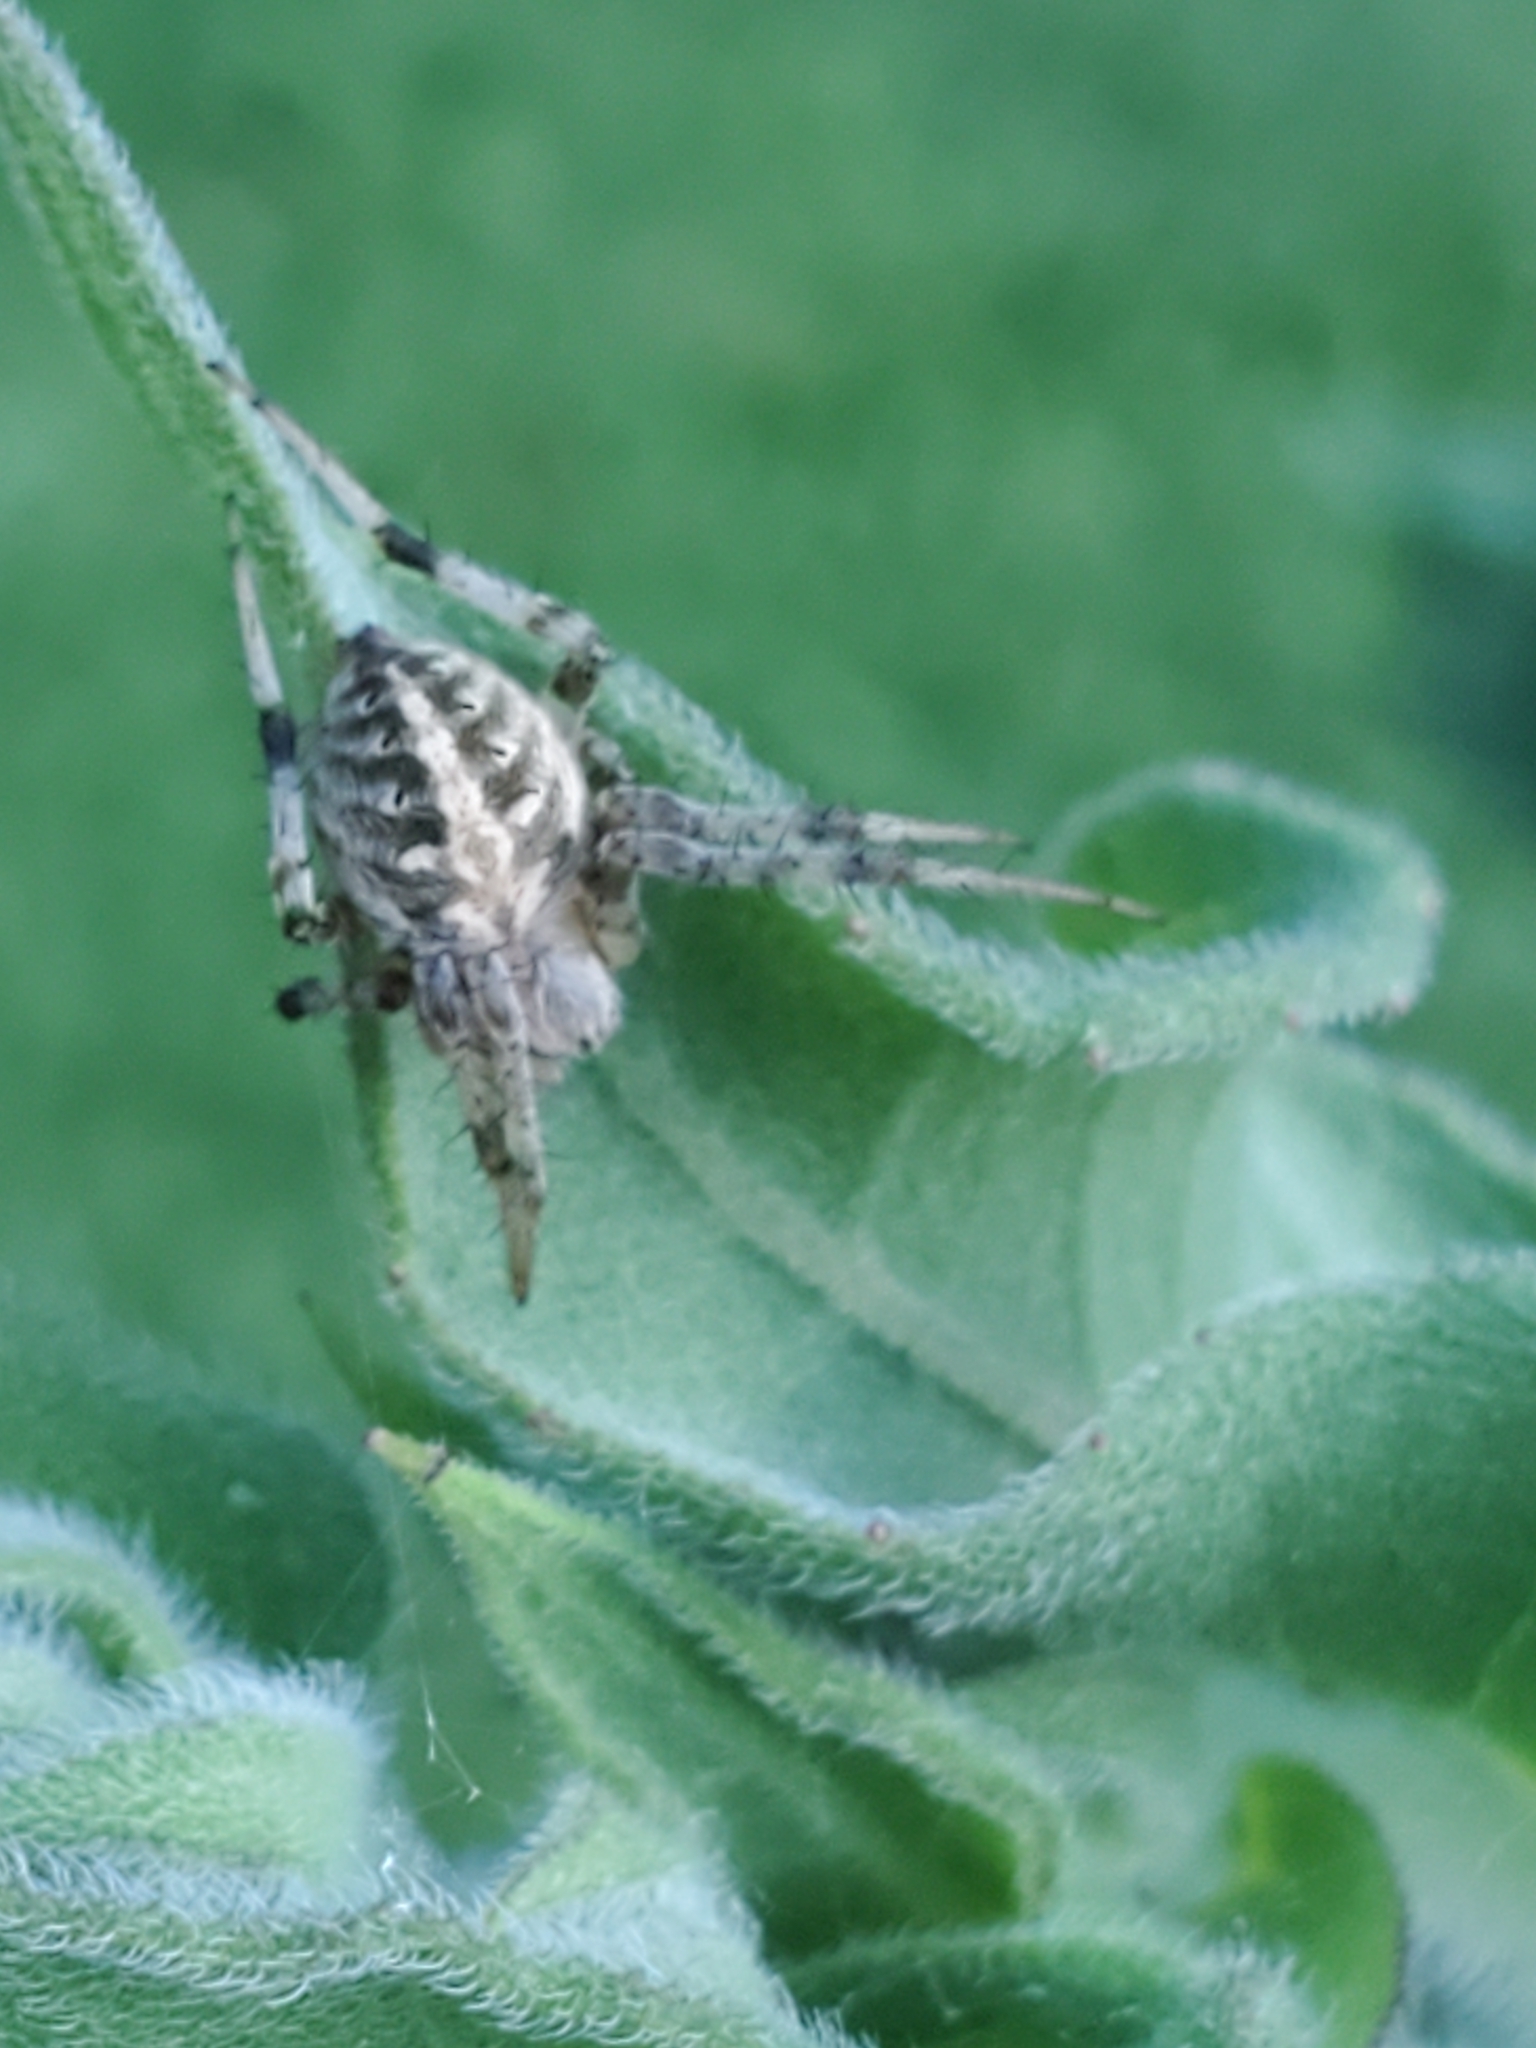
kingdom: Animalia
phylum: Arthropoda
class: Arachnida
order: Araneae
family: Araneidae
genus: Neoscona
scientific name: Neoscona arabesca
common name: Orb weavers
